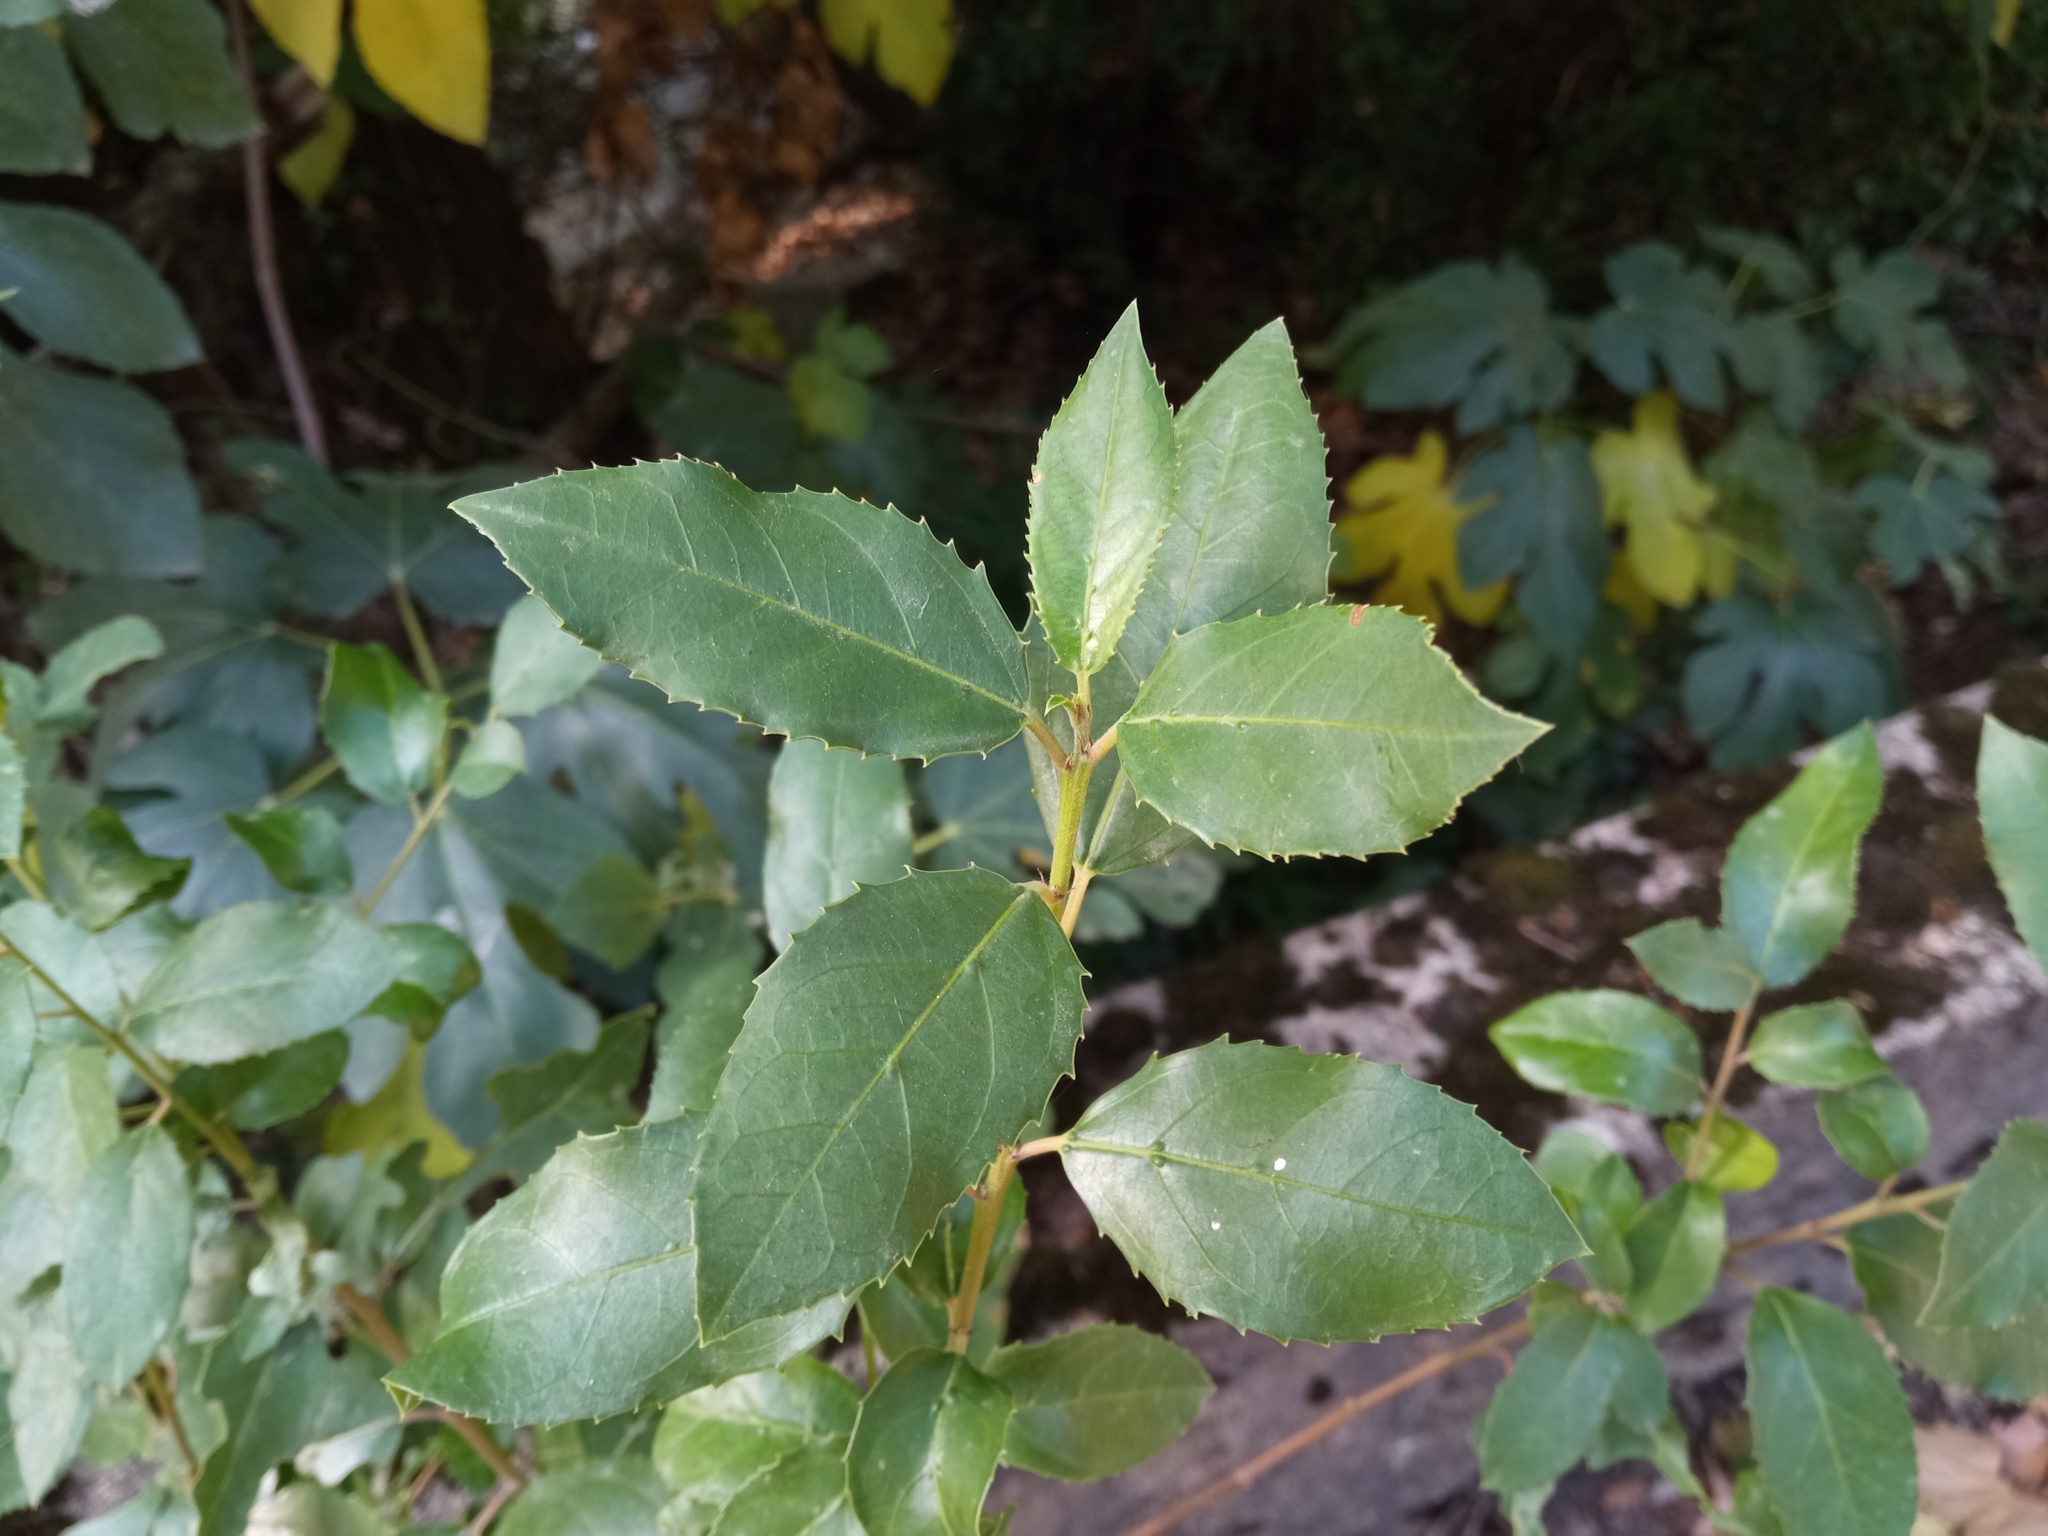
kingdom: Plantae
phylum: Tracheophyta
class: Magnoliopsida
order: Rosales
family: Rhamnaceae
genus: Rhamnus
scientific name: Rhamnus alaternus
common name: Mediterranean buckthorn
